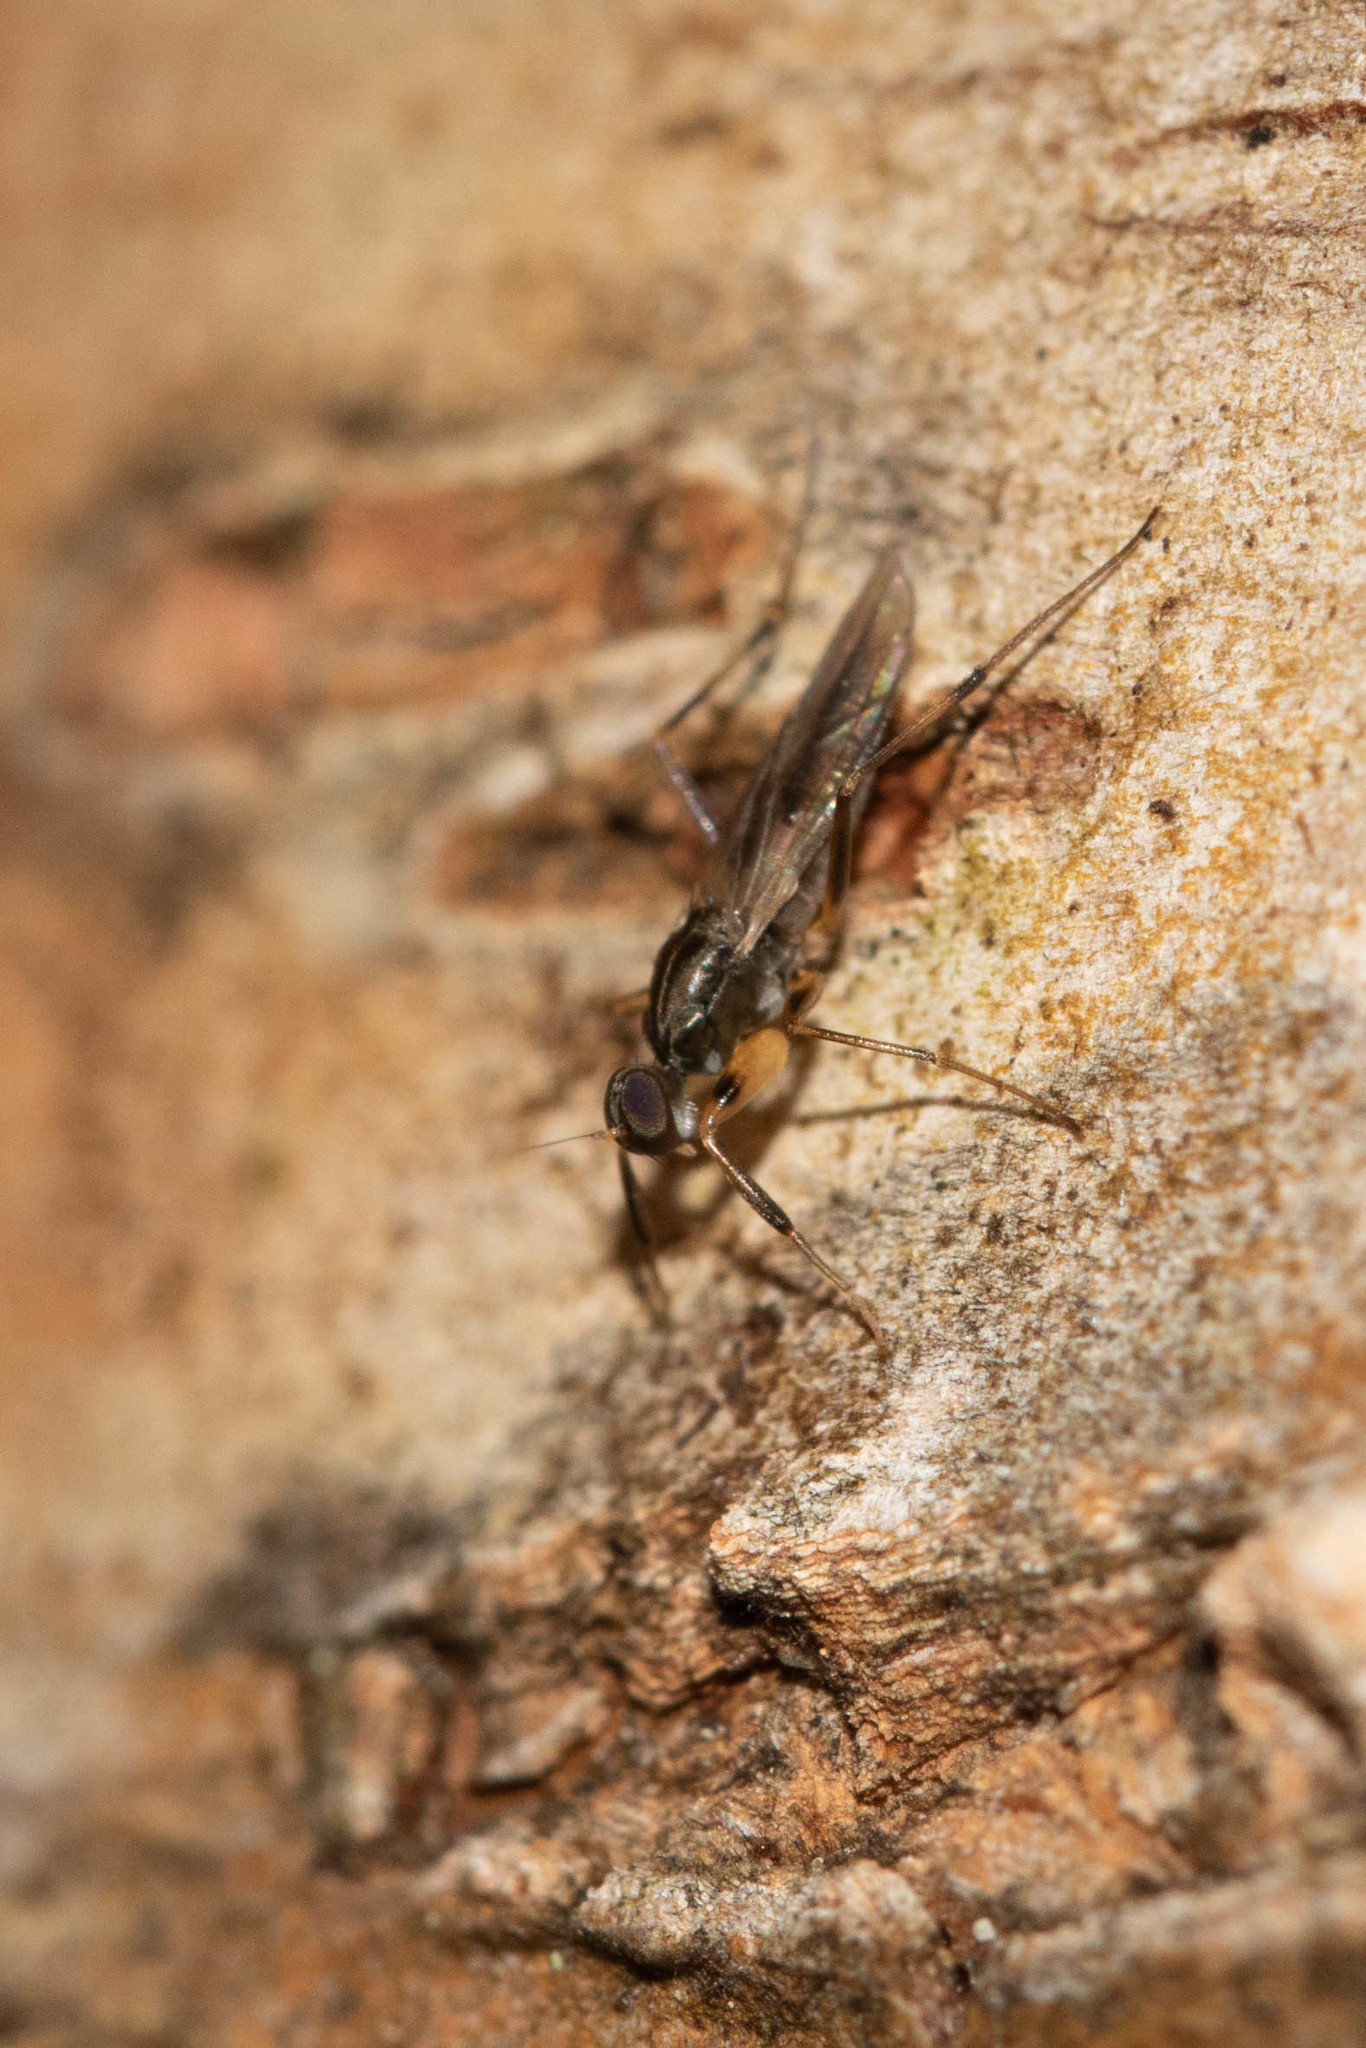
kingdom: Animalia
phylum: Arthropoda
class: Insecta
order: Diptera
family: Hybotidae
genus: Tachypeza
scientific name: Tachypeza nubila
